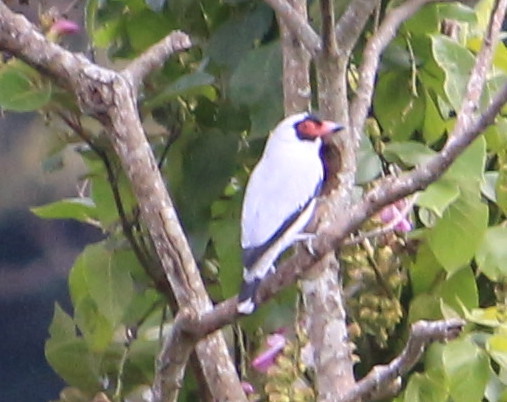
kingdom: Animalia
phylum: Chordata
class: Aves
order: Passeriformes
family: Cotingidae
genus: Tityra
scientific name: Tityra semifasciata
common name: Masked tityra
